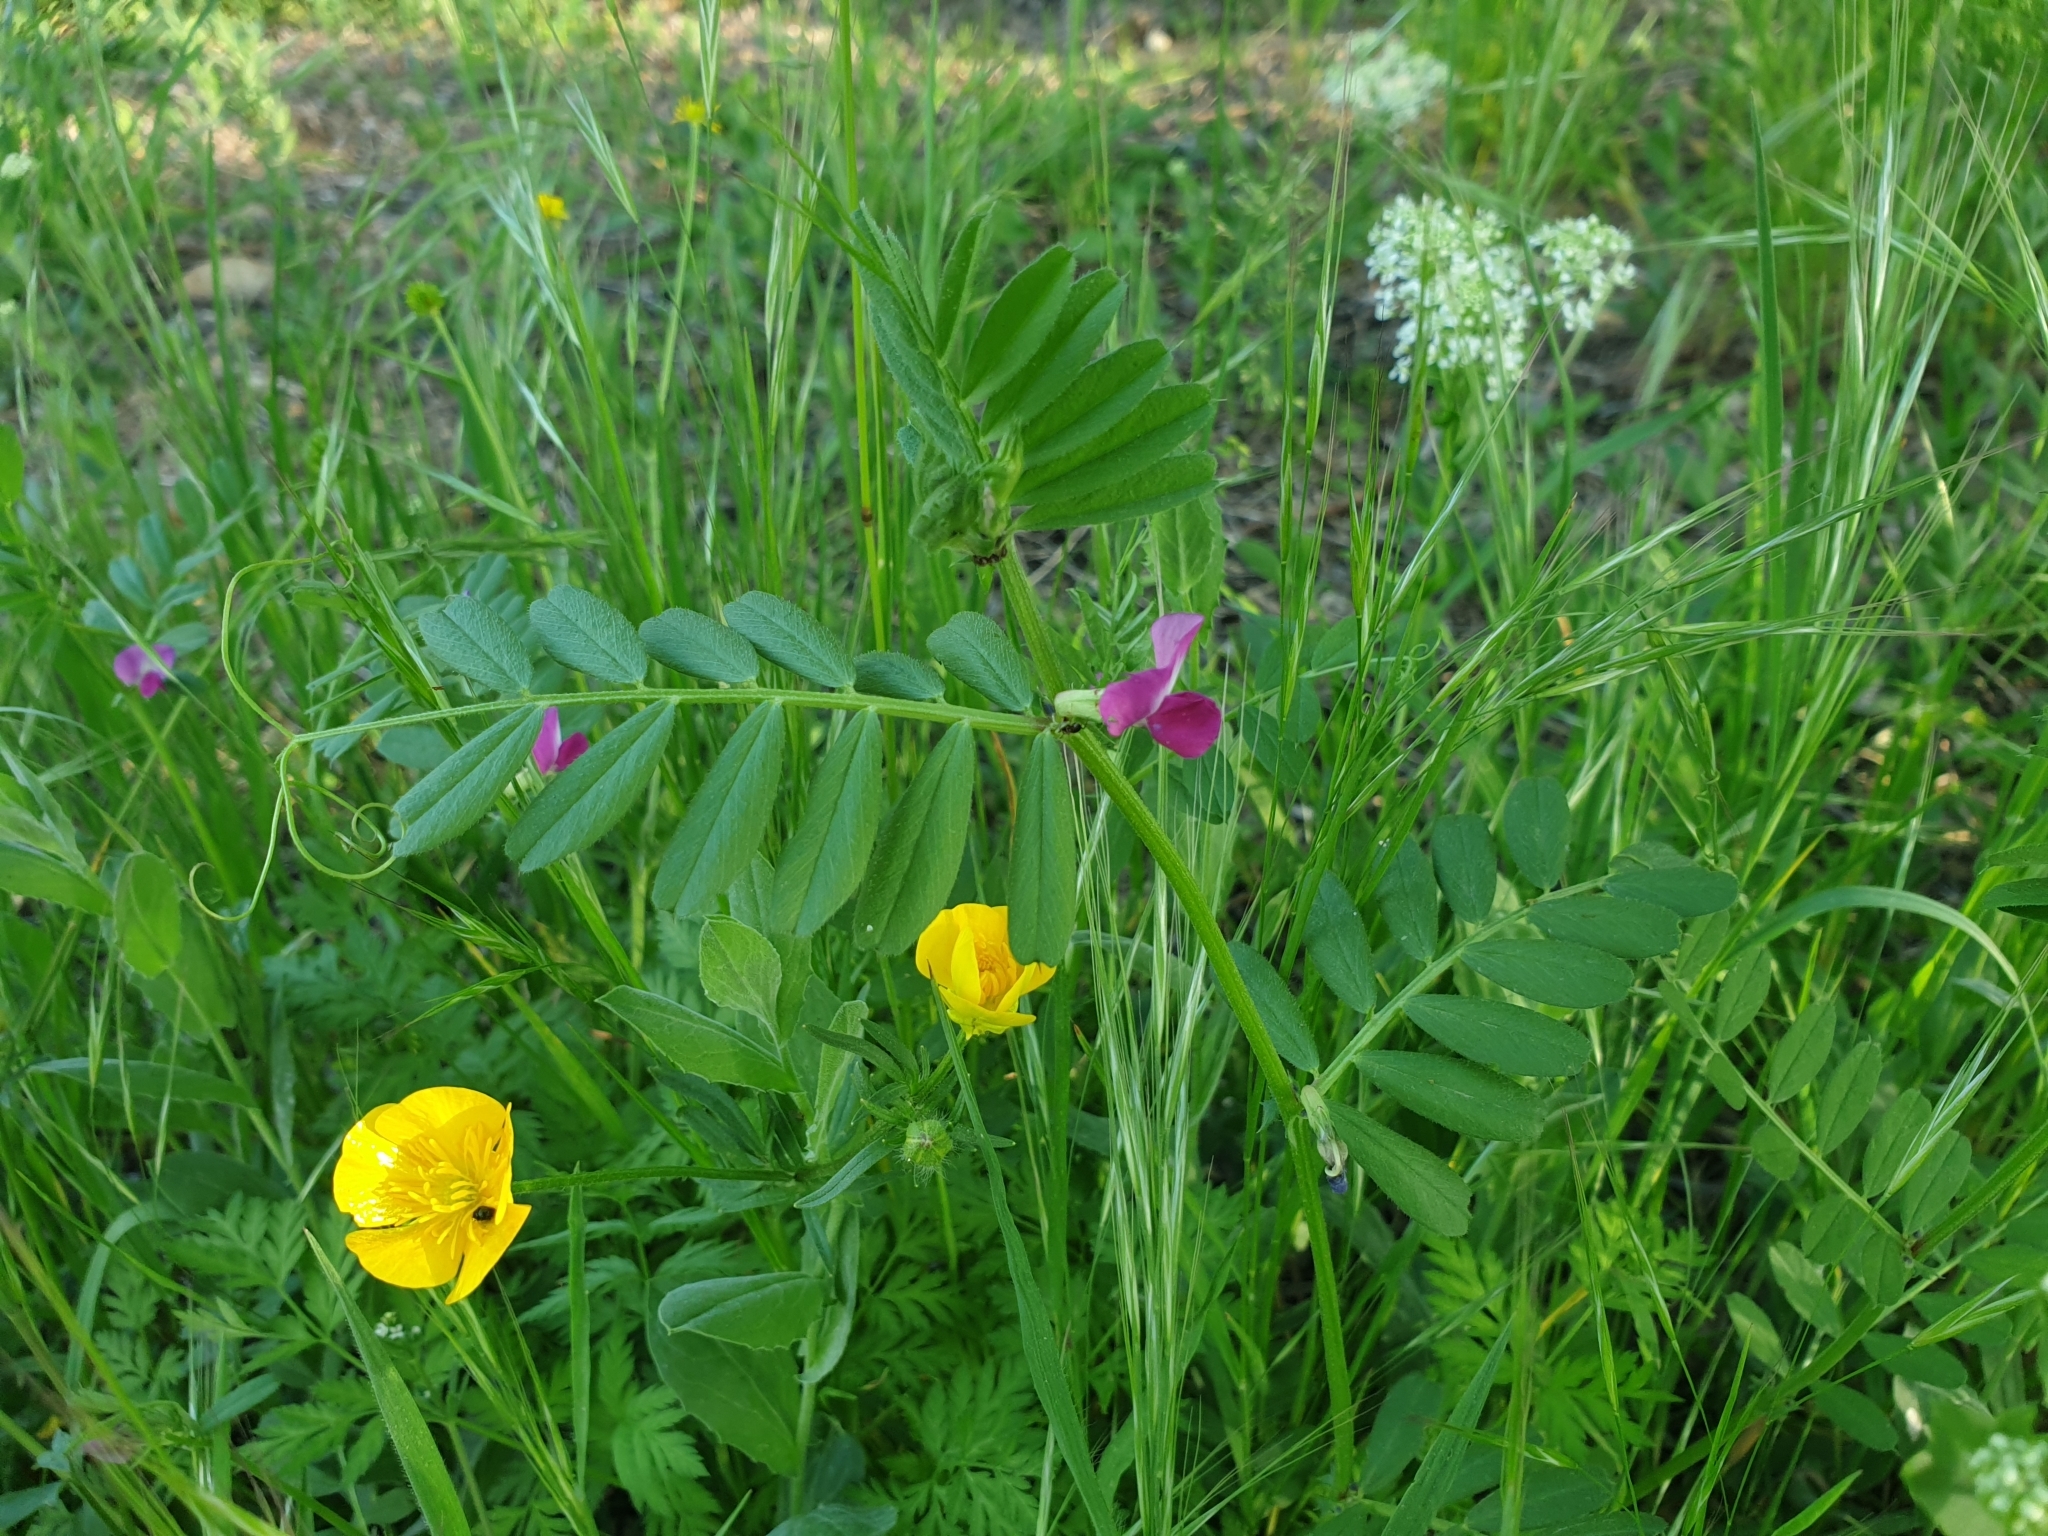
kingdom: Plantae
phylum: Tracheophyta
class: Magnoliopsida
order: Fabales
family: Fabaceae
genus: Vicia
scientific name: Vicia sativa
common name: Garden vetch
